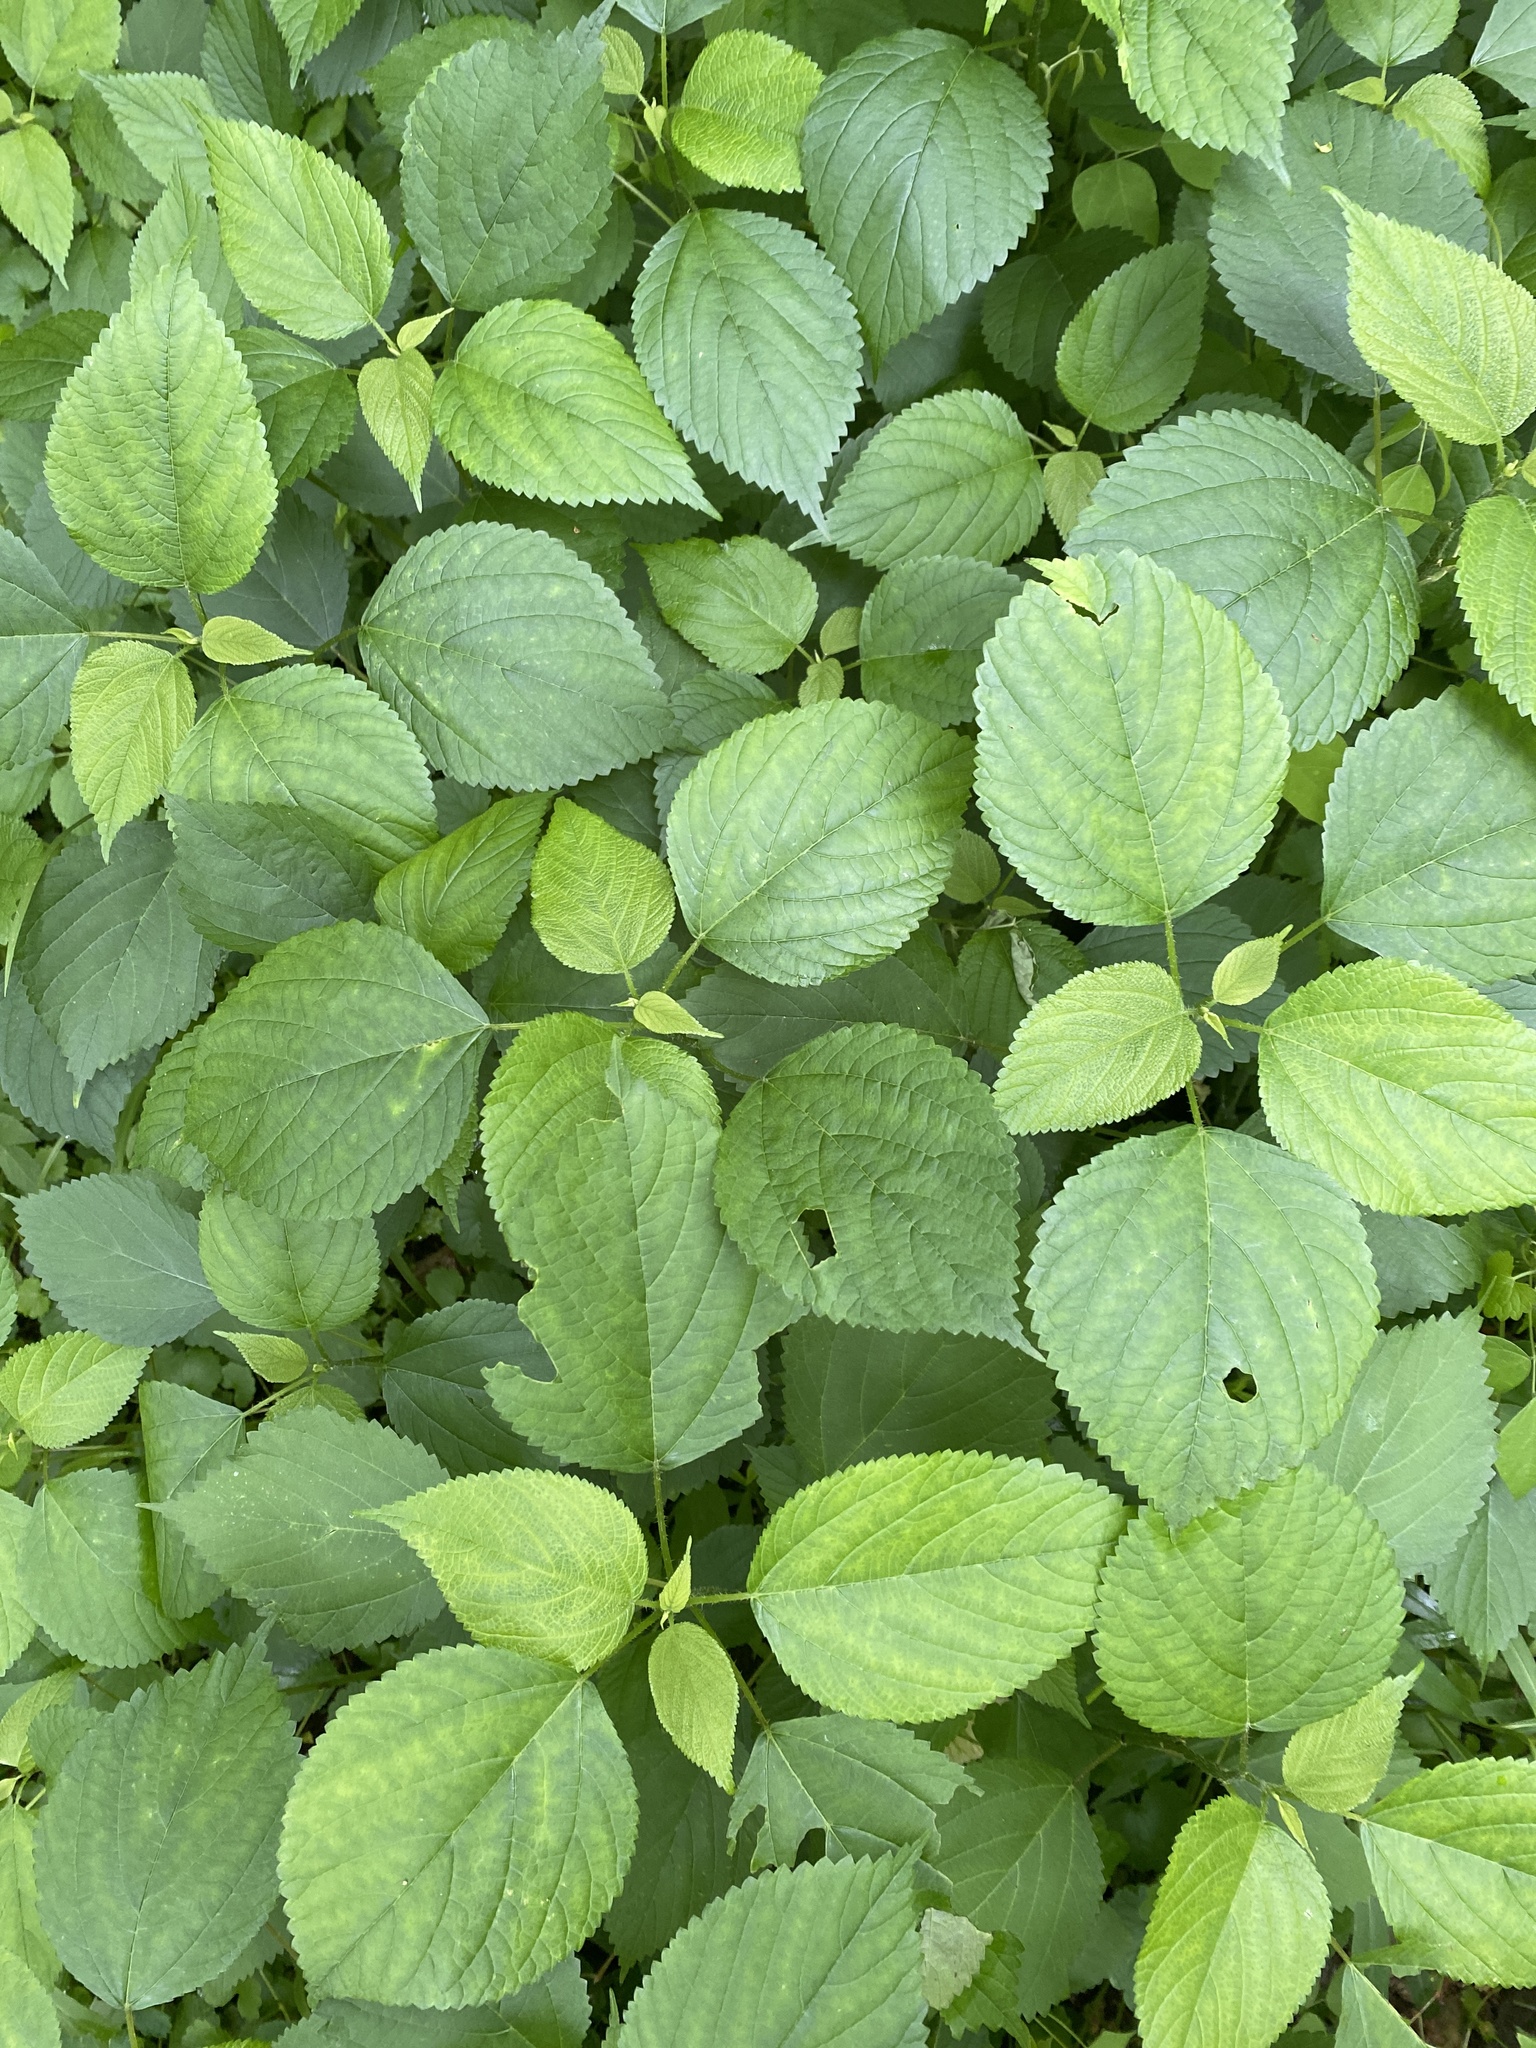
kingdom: Plantae
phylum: Tracheophyta
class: Magnoliopsida
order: Rosales
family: Urticaceae
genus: Laportea
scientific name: Laportea canadensis
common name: Canada nettle
